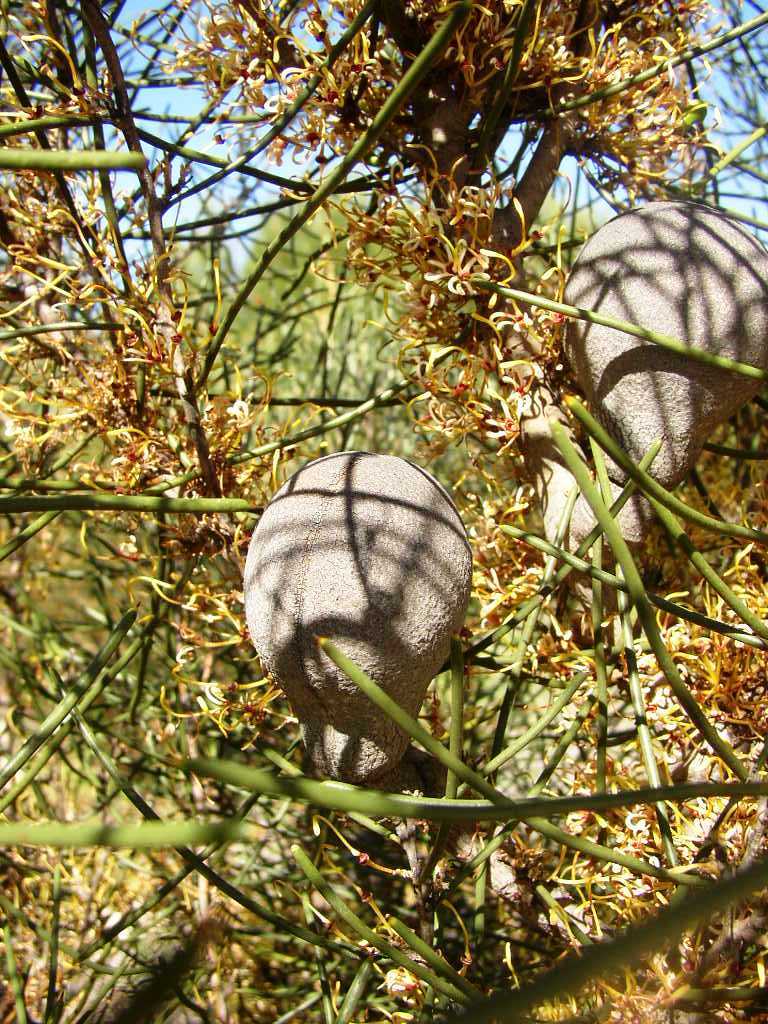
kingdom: Plantae
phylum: Tracheophyta
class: Magnoliopsida
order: Proteales
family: Proteaceae
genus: Hakea
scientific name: Hakea platysperma
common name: Cricket-ball hakea
